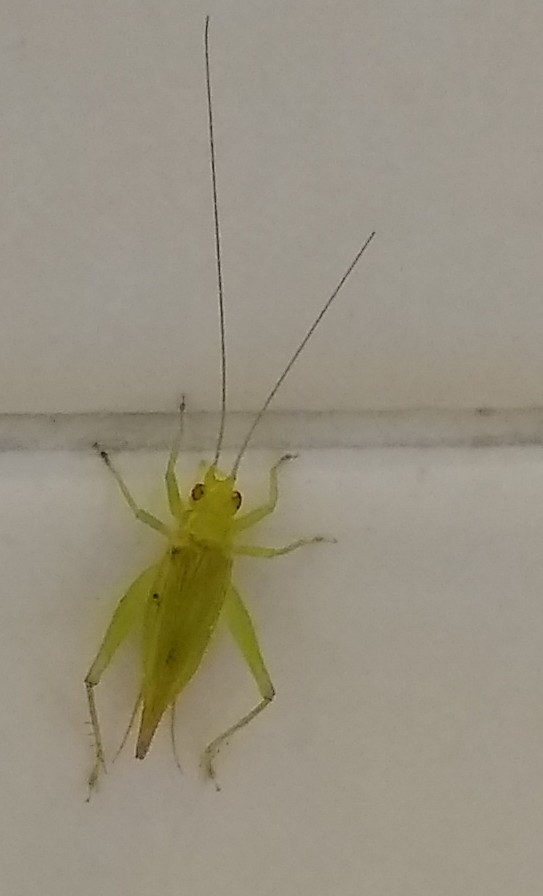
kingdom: Animalia
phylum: Arthropoda
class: Insecta
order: Orthoptera
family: Trigonidiidae
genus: Cyrtoxipha
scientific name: Cyrtoxipha columbiana
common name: Columbian trig
